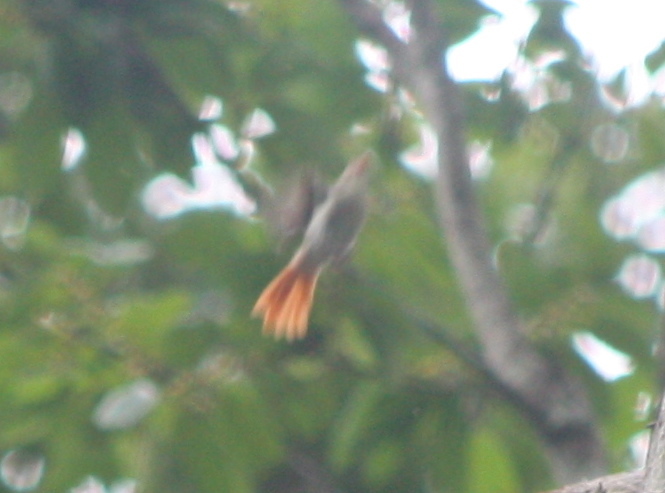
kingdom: Animalia
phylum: Chordata
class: Aves
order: Passeriformes
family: Erythrocercidae
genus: Erythrocercus
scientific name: Erythrocercus mccallii
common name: Chestnut-capped flycatcher
